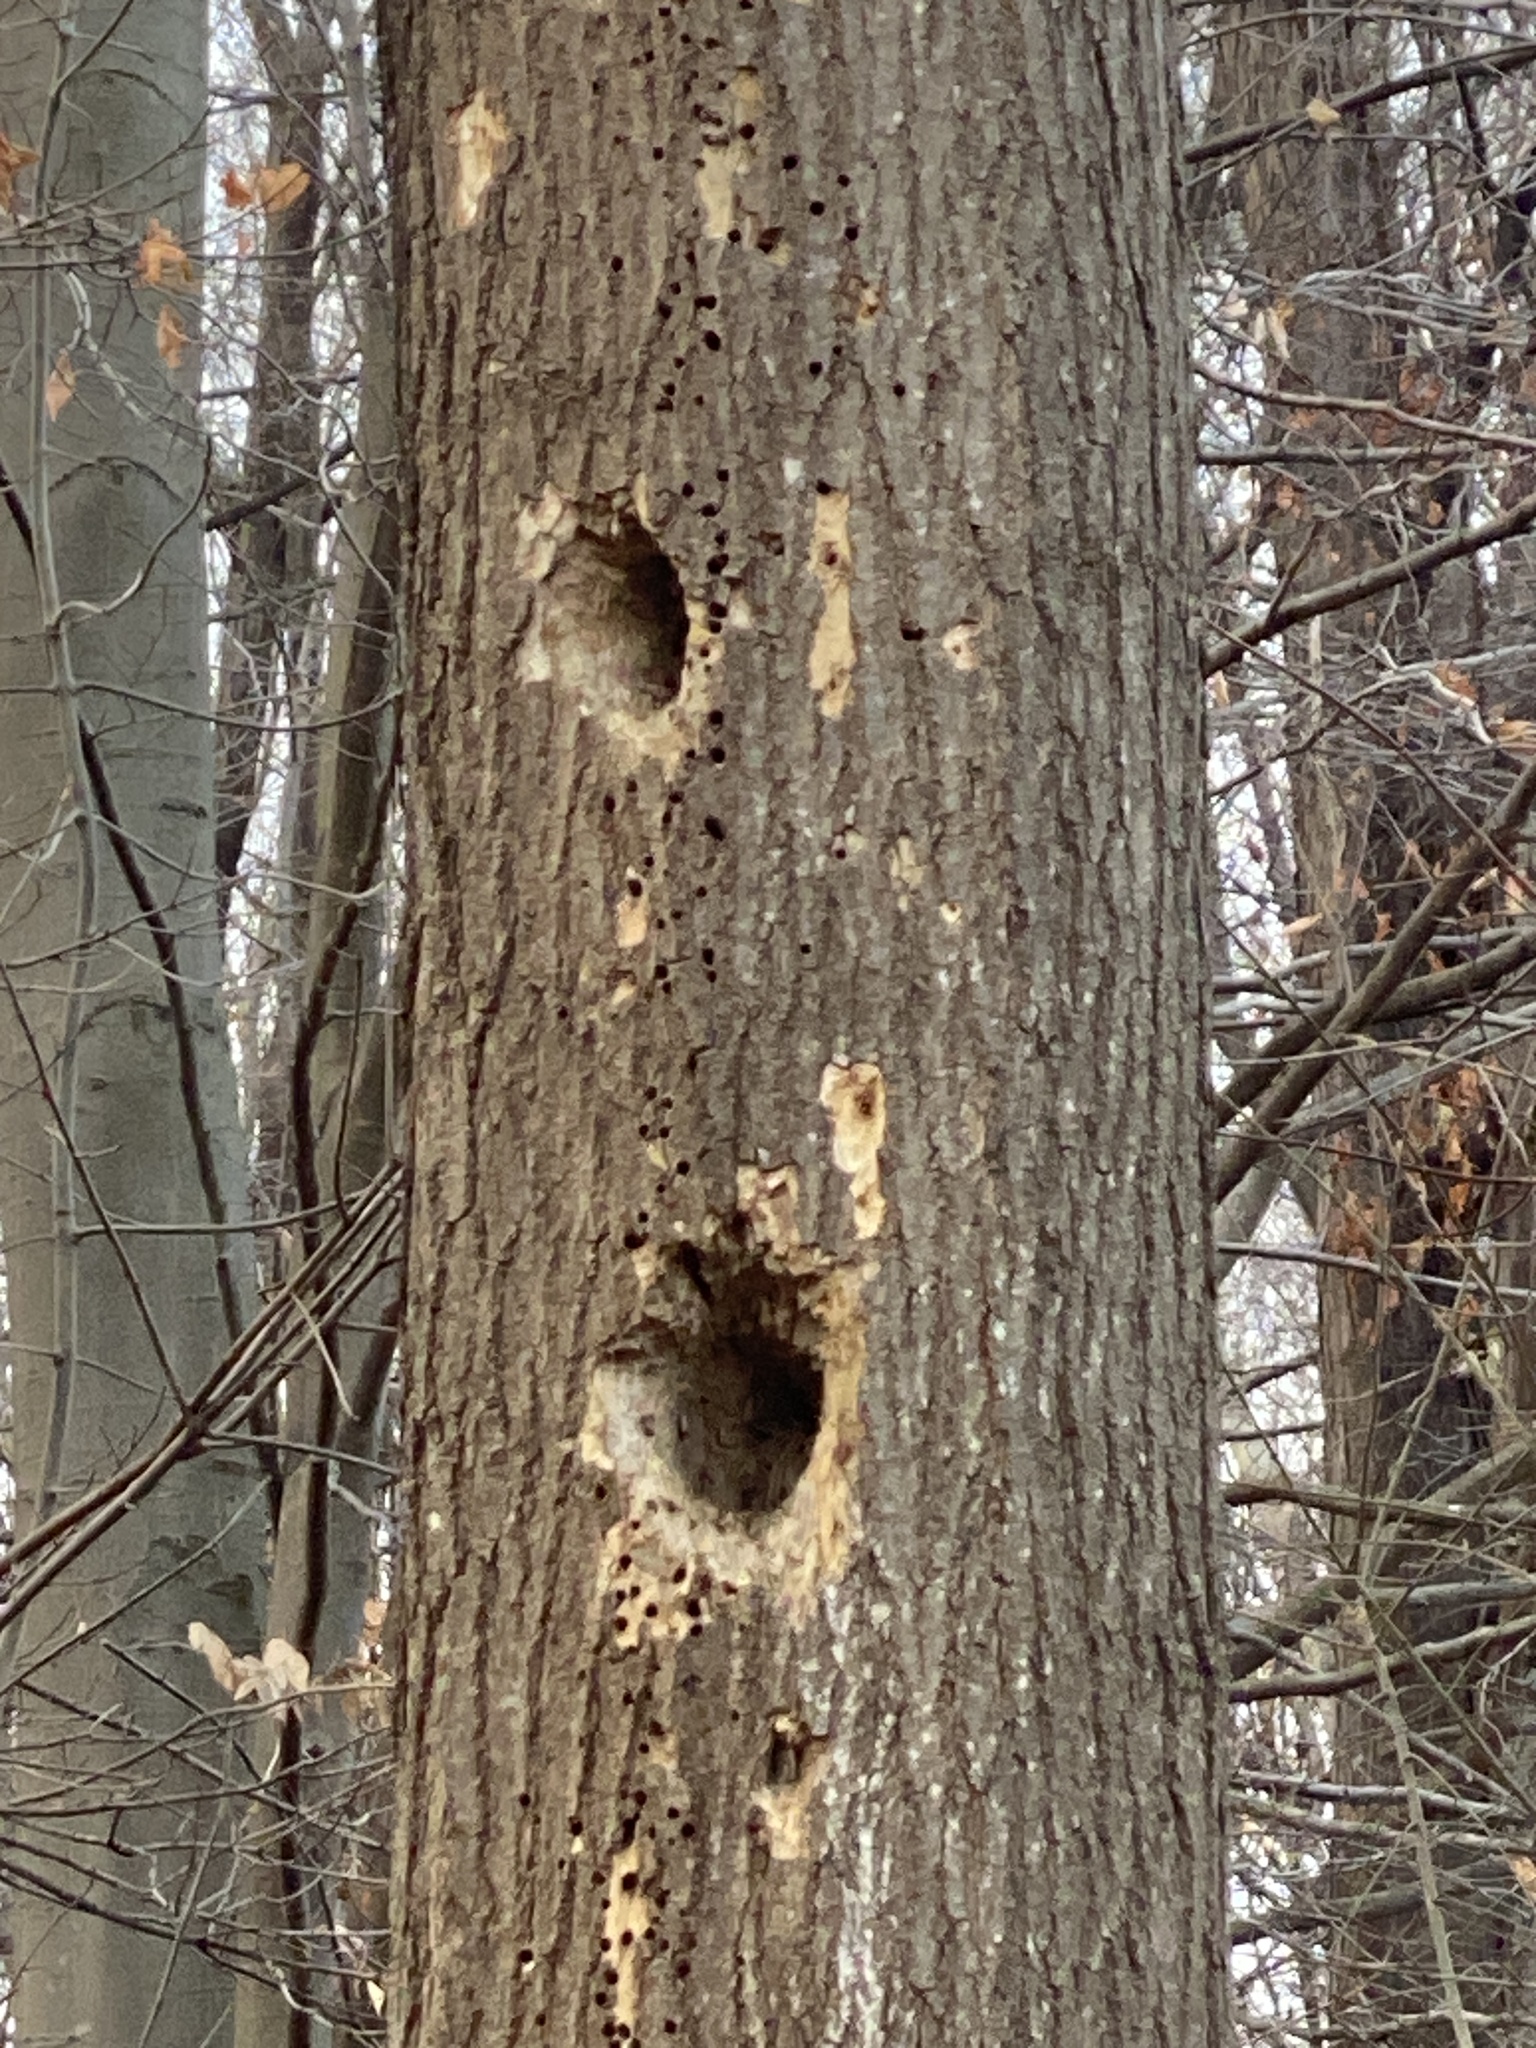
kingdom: Animalia
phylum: Chordata
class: Aves
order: Piciformes
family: Picidae
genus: Dryocopus
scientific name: Dryocopus pileatus
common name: Pileated woodpecker
